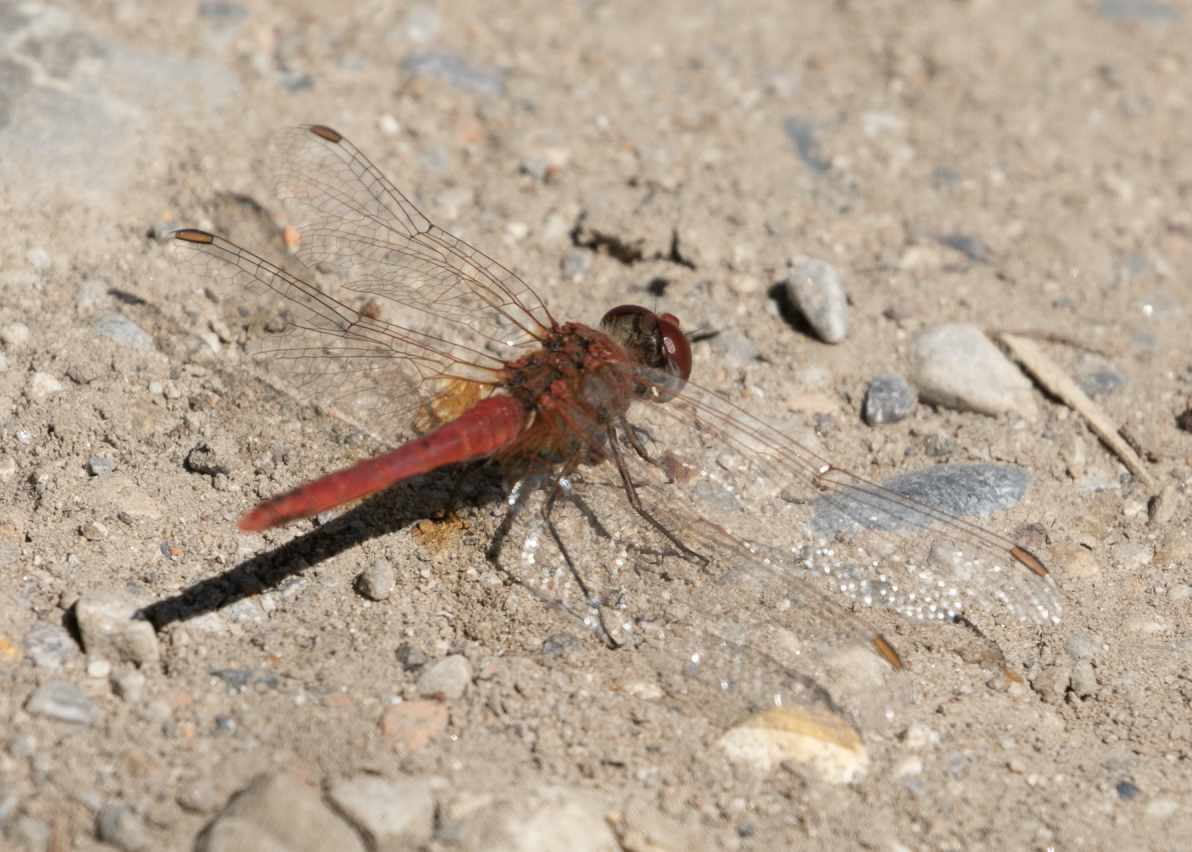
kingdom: Animalia
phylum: Arthropoda
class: Insecta
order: Odonata
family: Libellulidae
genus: Sympetrum
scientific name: Sympetrum fonscolombii
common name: Red-veined darter
